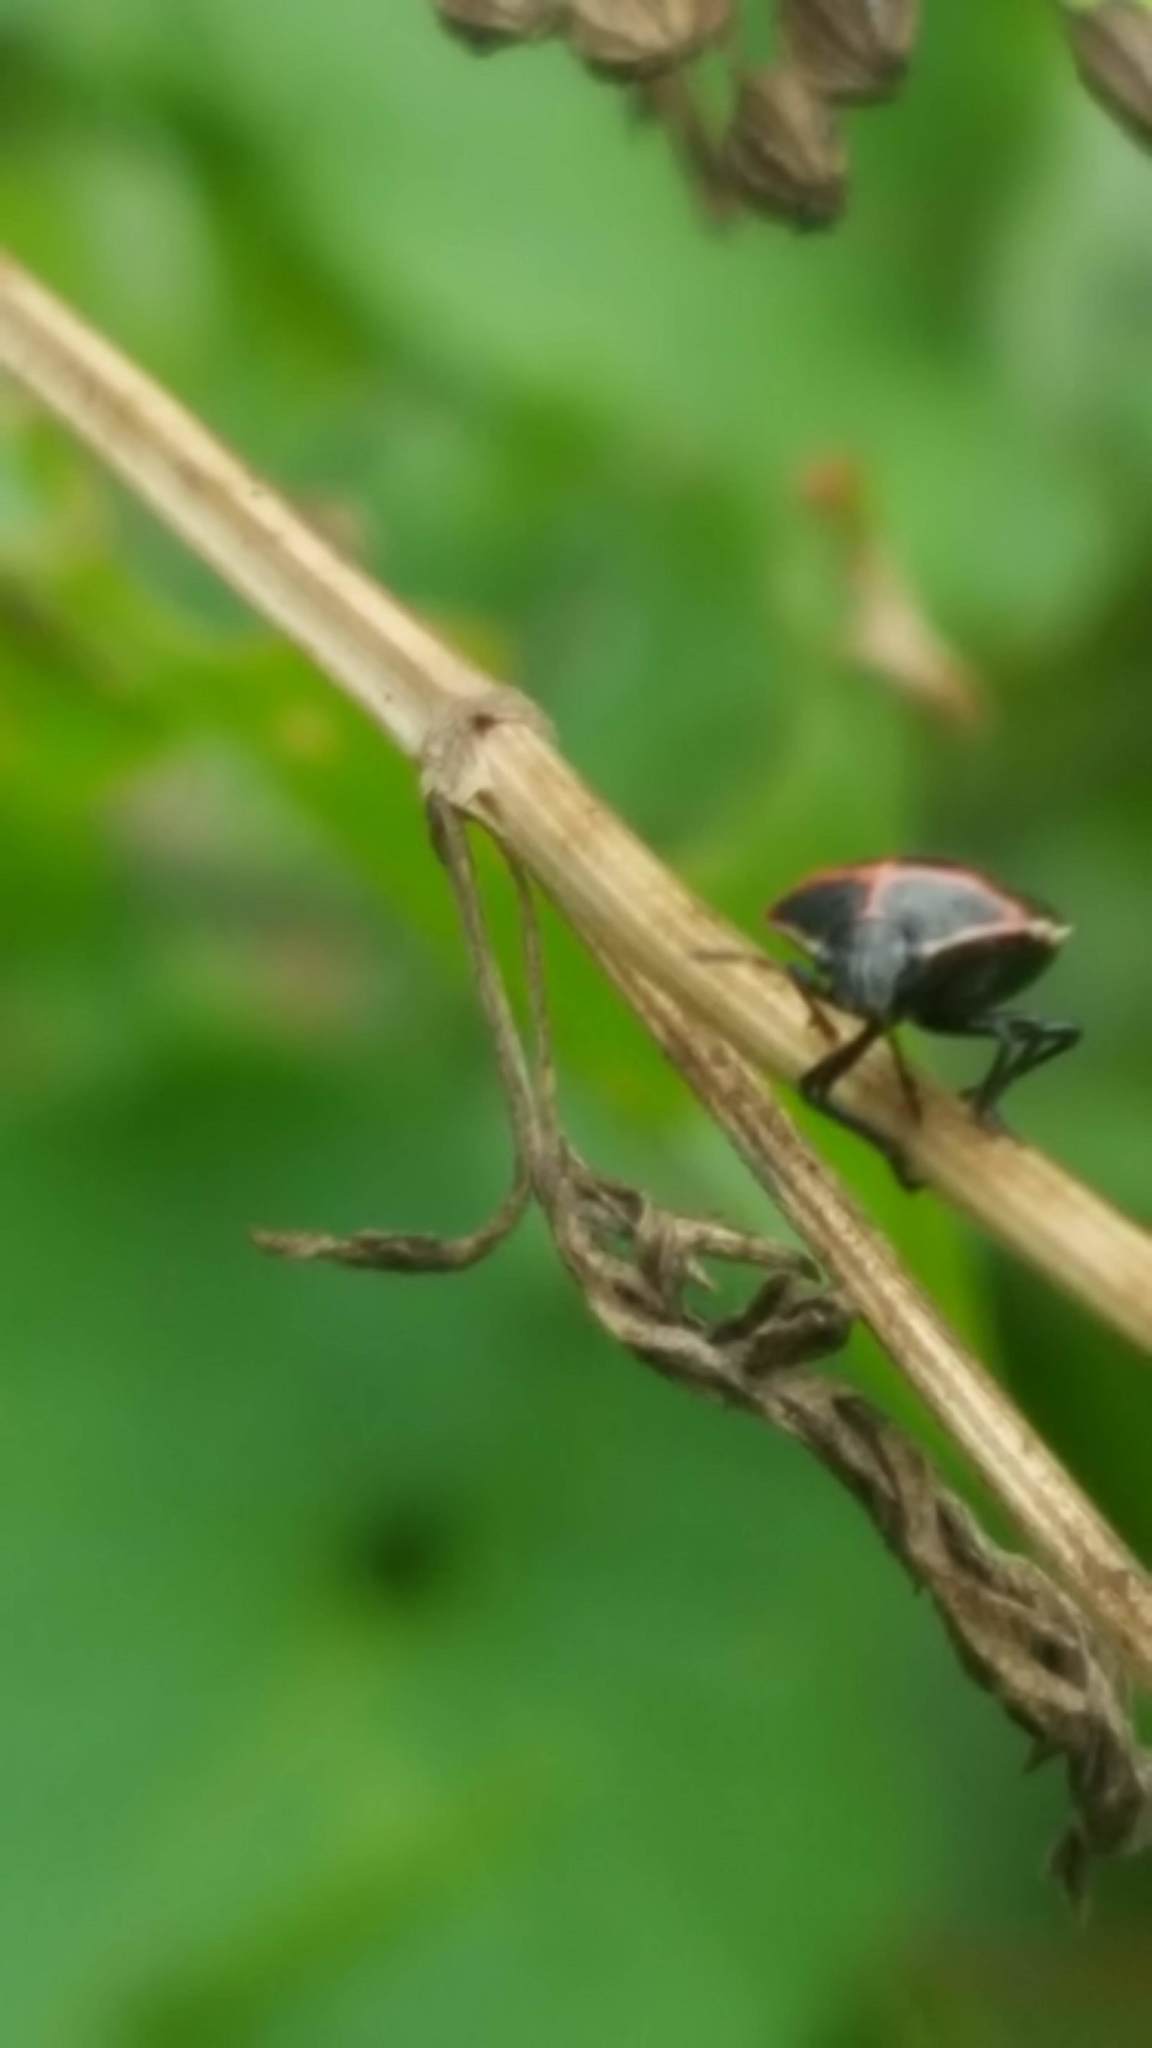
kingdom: Animalia
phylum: Arthropoda
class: Insecta
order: Hemiptera
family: Pentatomidae
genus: Cosmopepla
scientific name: Cosmopepla lintneriana
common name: Twice-stabbed stink bug
